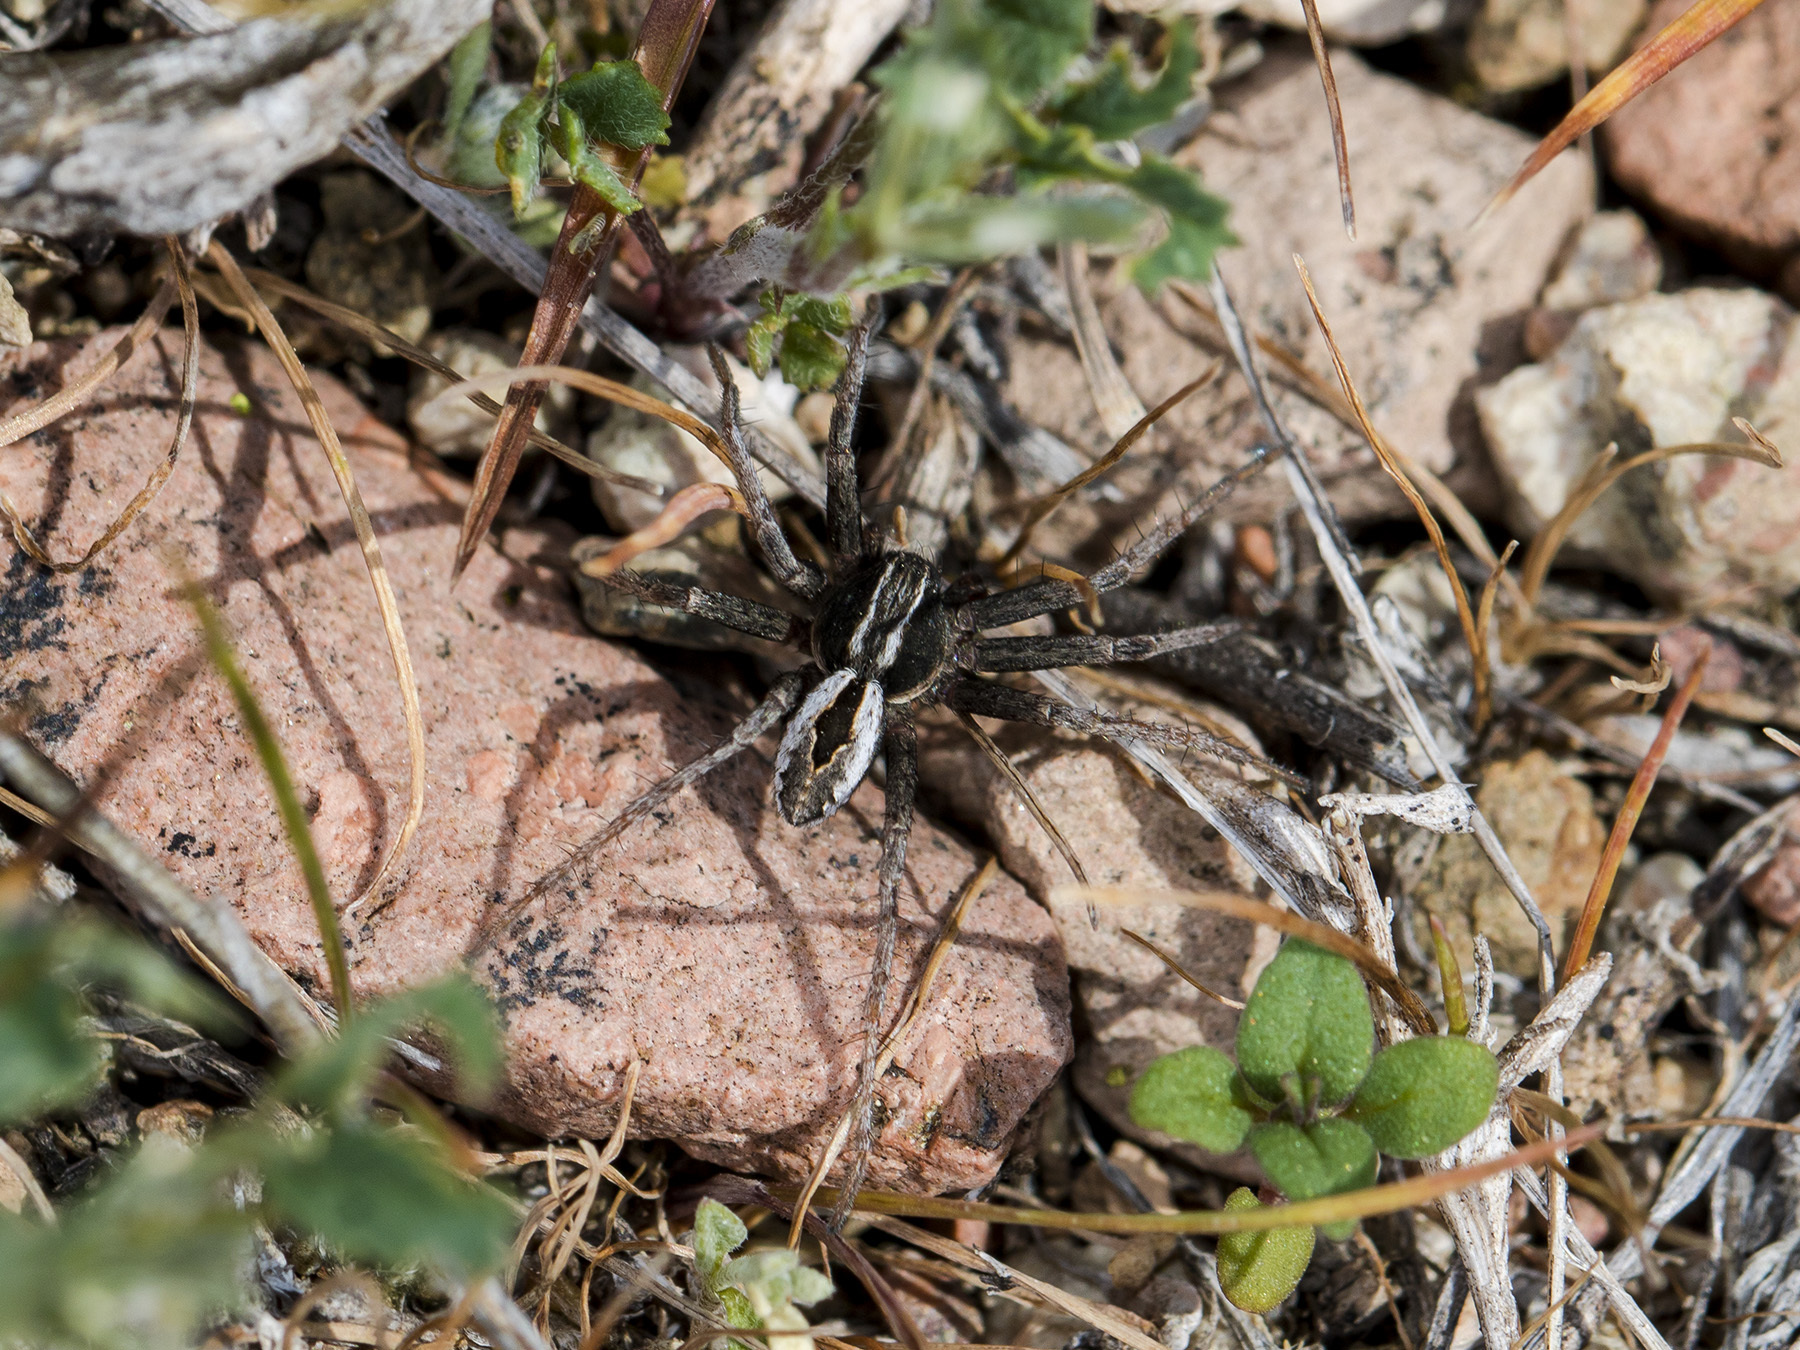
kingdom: Animalia
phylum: Arthropoda
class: Arachnida
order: Araneae
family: Philodromidae
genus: Thanatus
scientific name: Thanatus imbecillus
